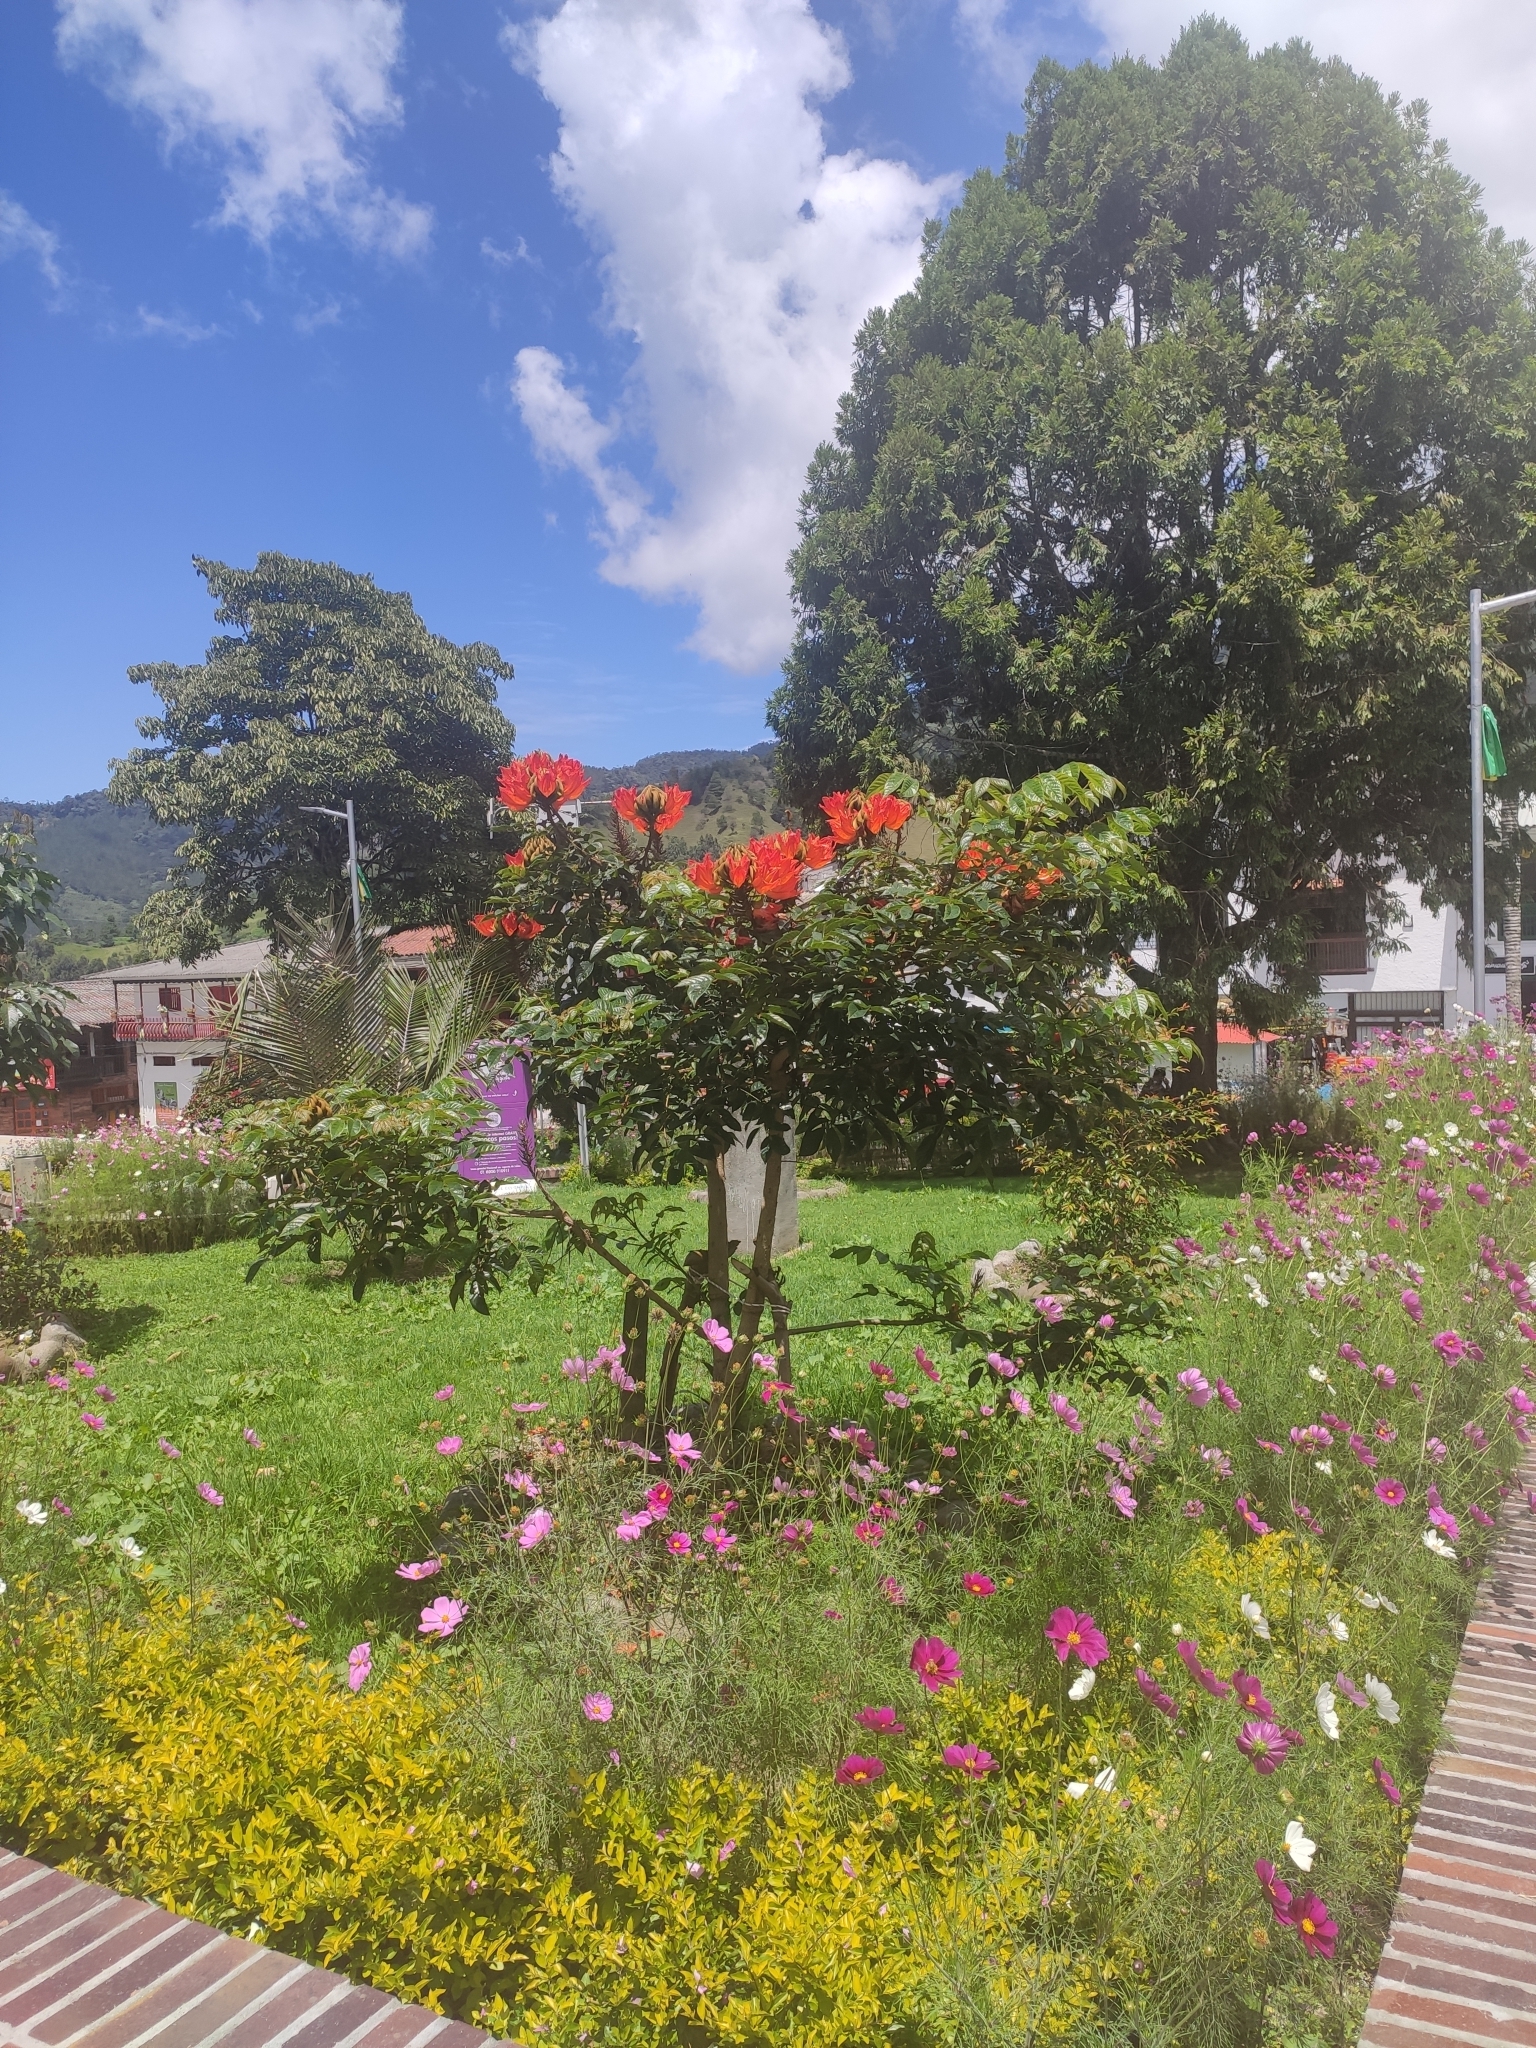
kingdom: Plantae
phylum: Tracheophyta
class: Magnoliopsida
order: Lamiales
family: Bignoniaceae
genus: Spathodea
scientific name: Spathodea campanulata
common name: African tuliptree
